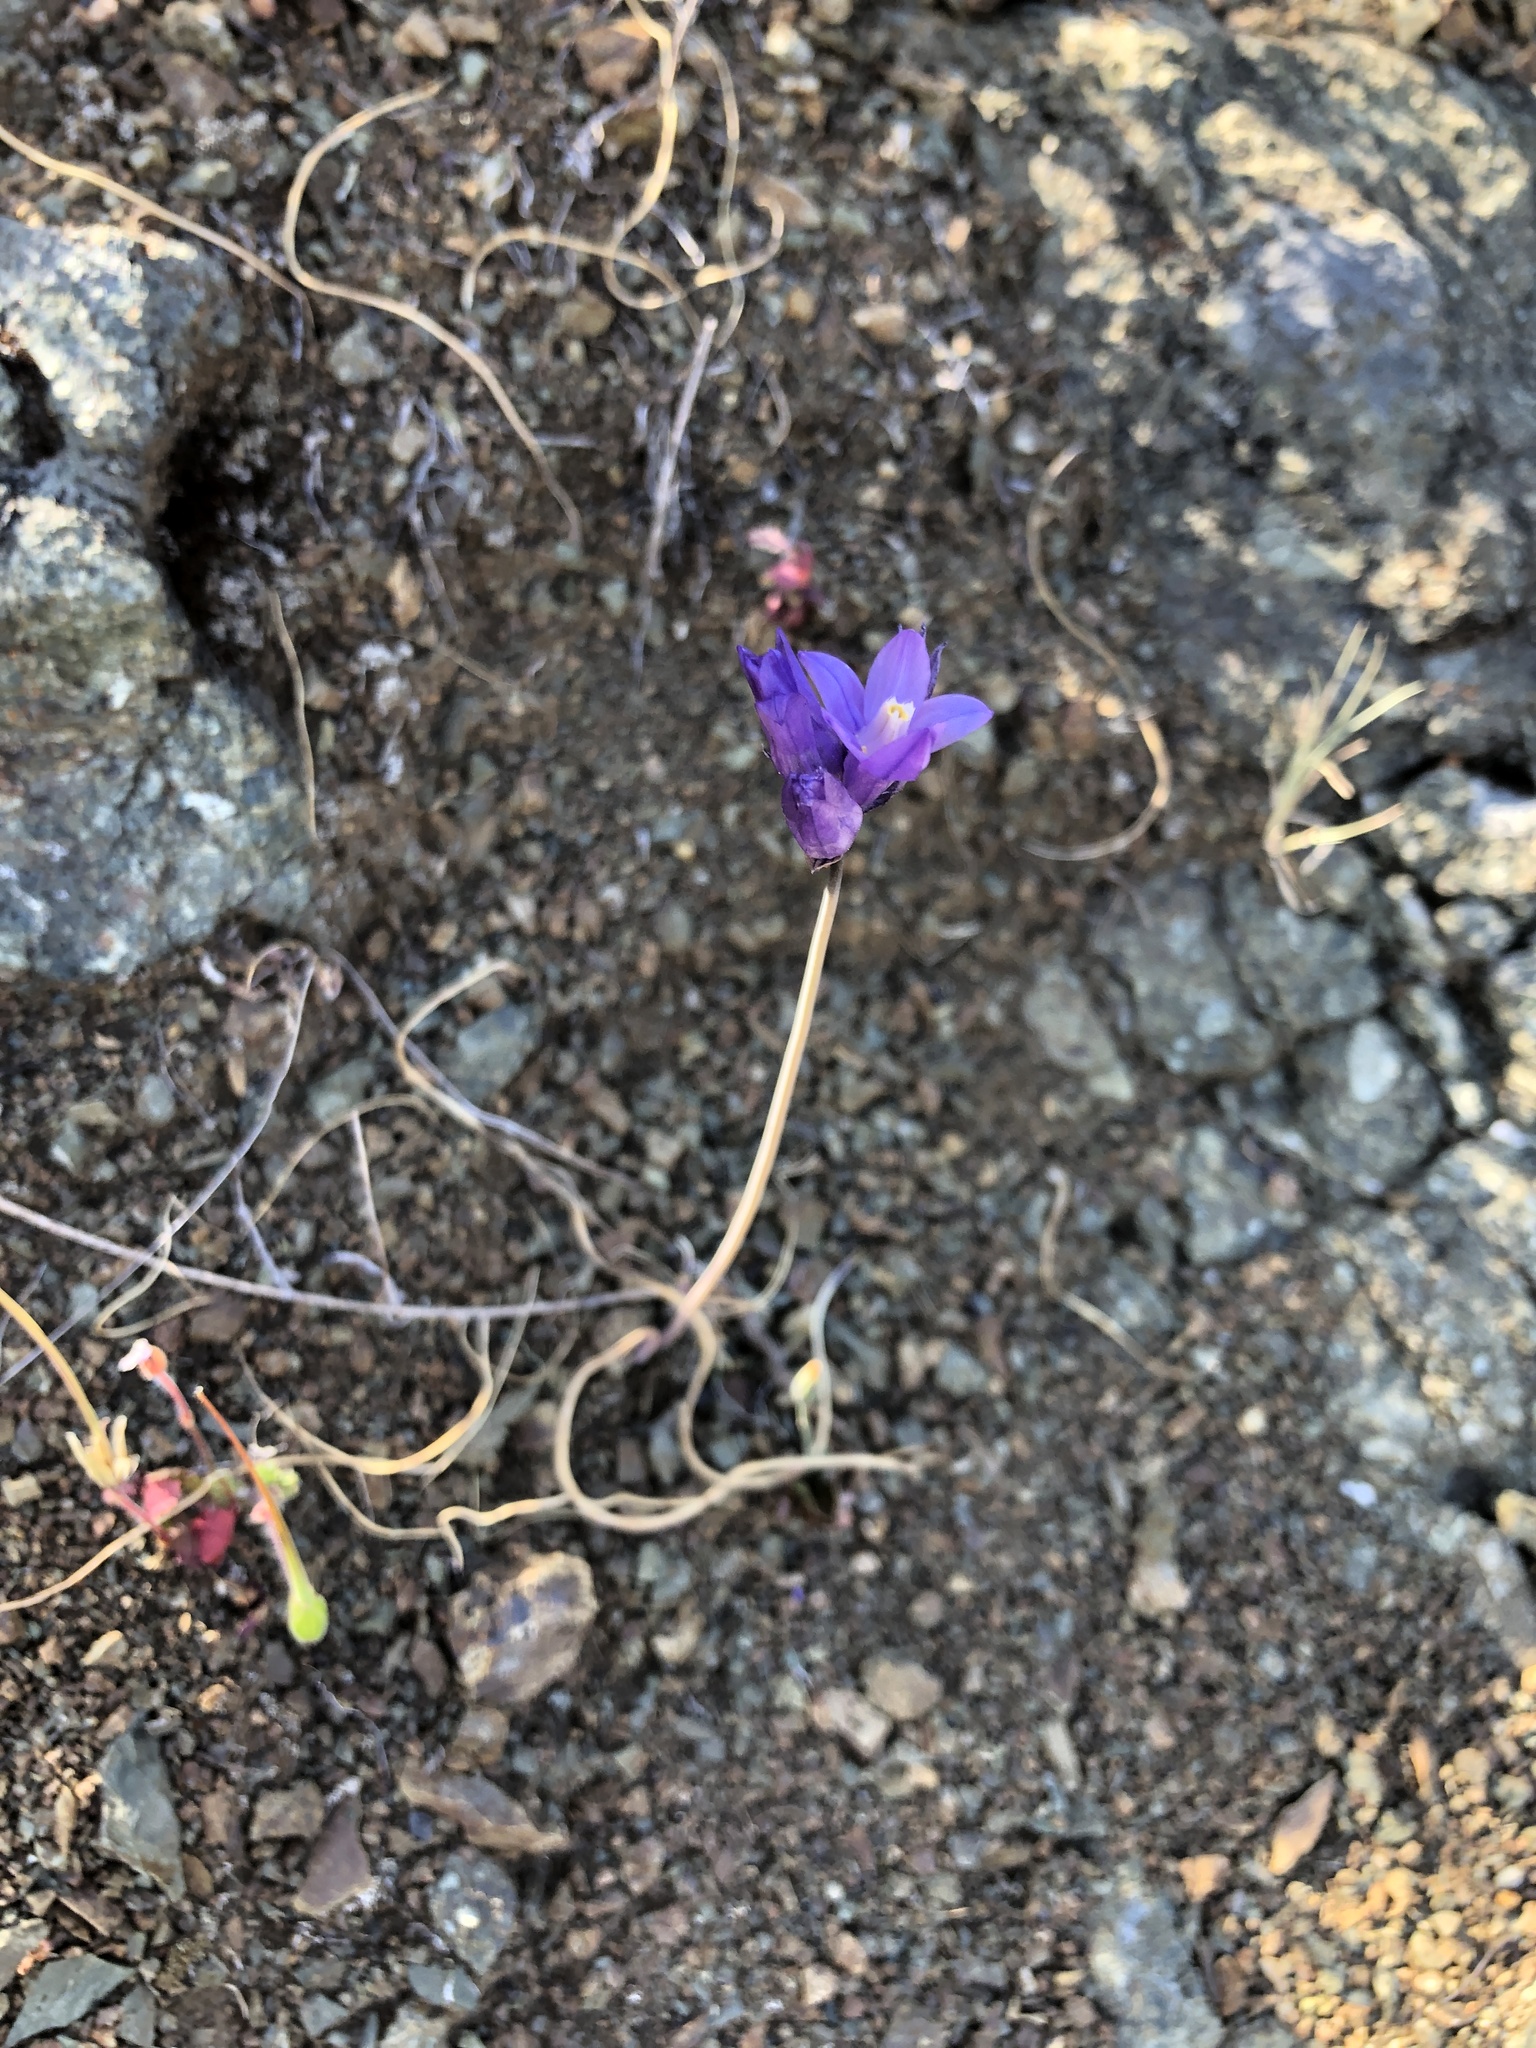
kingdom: Plantae
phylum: Tracheophyta
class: Liliopsida
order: Asparagales
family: Asparagaceae
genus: Dipterostemon
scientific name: Dipterostemon capitatus
